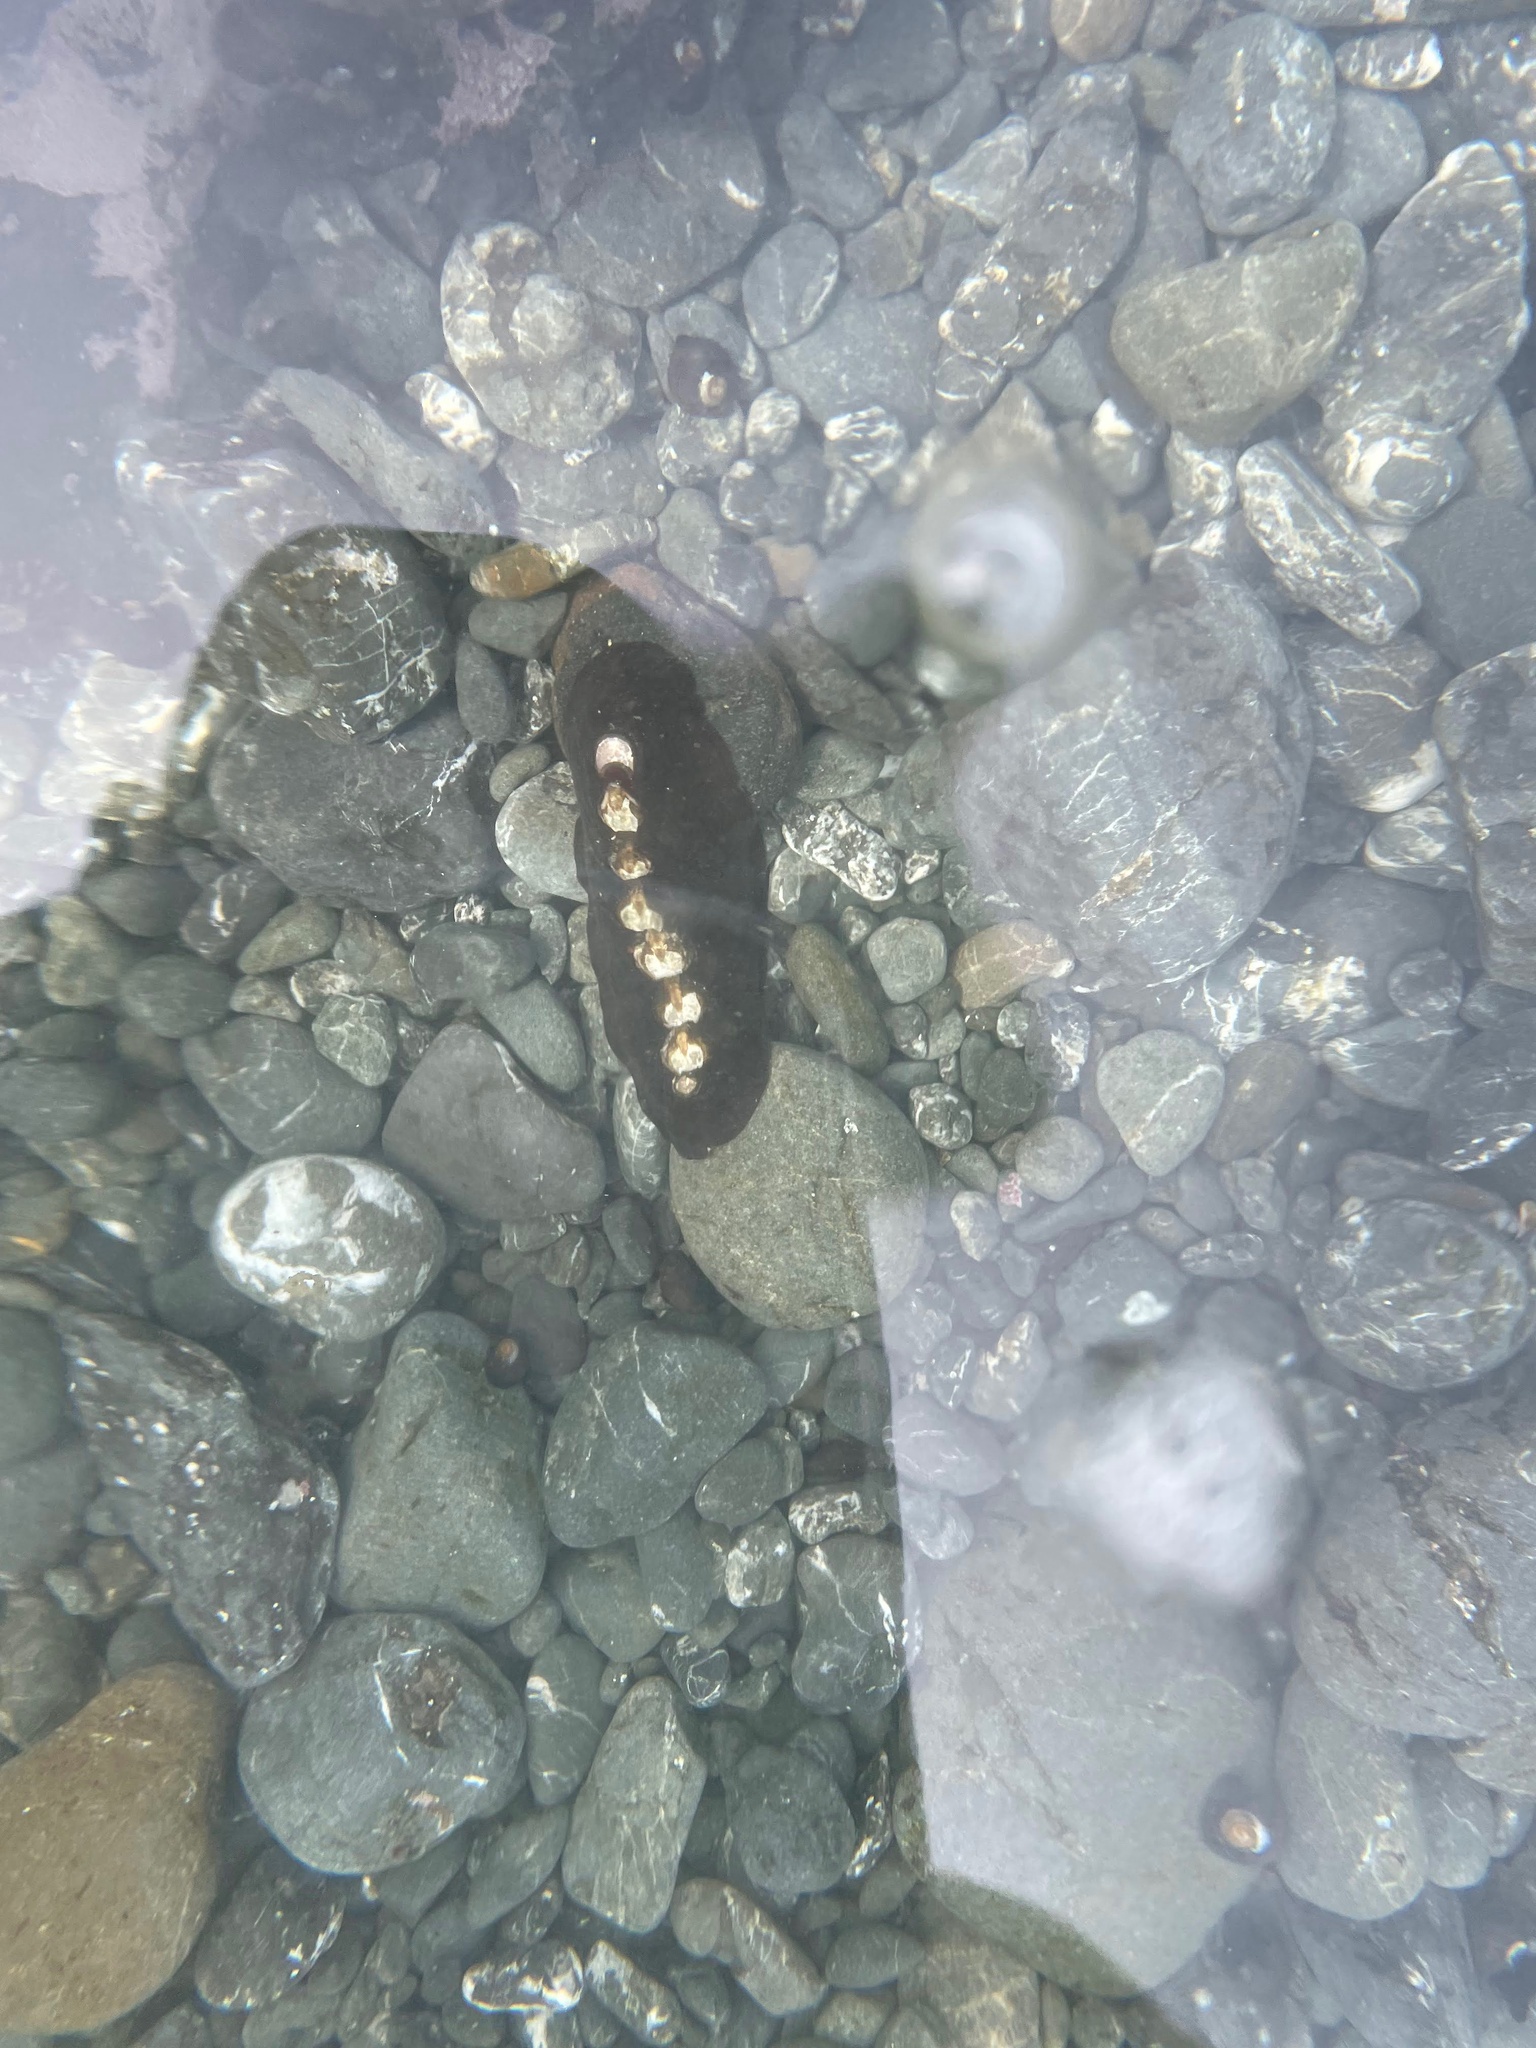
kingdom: Animalia
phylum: Mollusca
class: Polyplacophora
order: Chitonida
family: Mopaliidae
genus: Katharina
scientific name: Katharina tunicata
